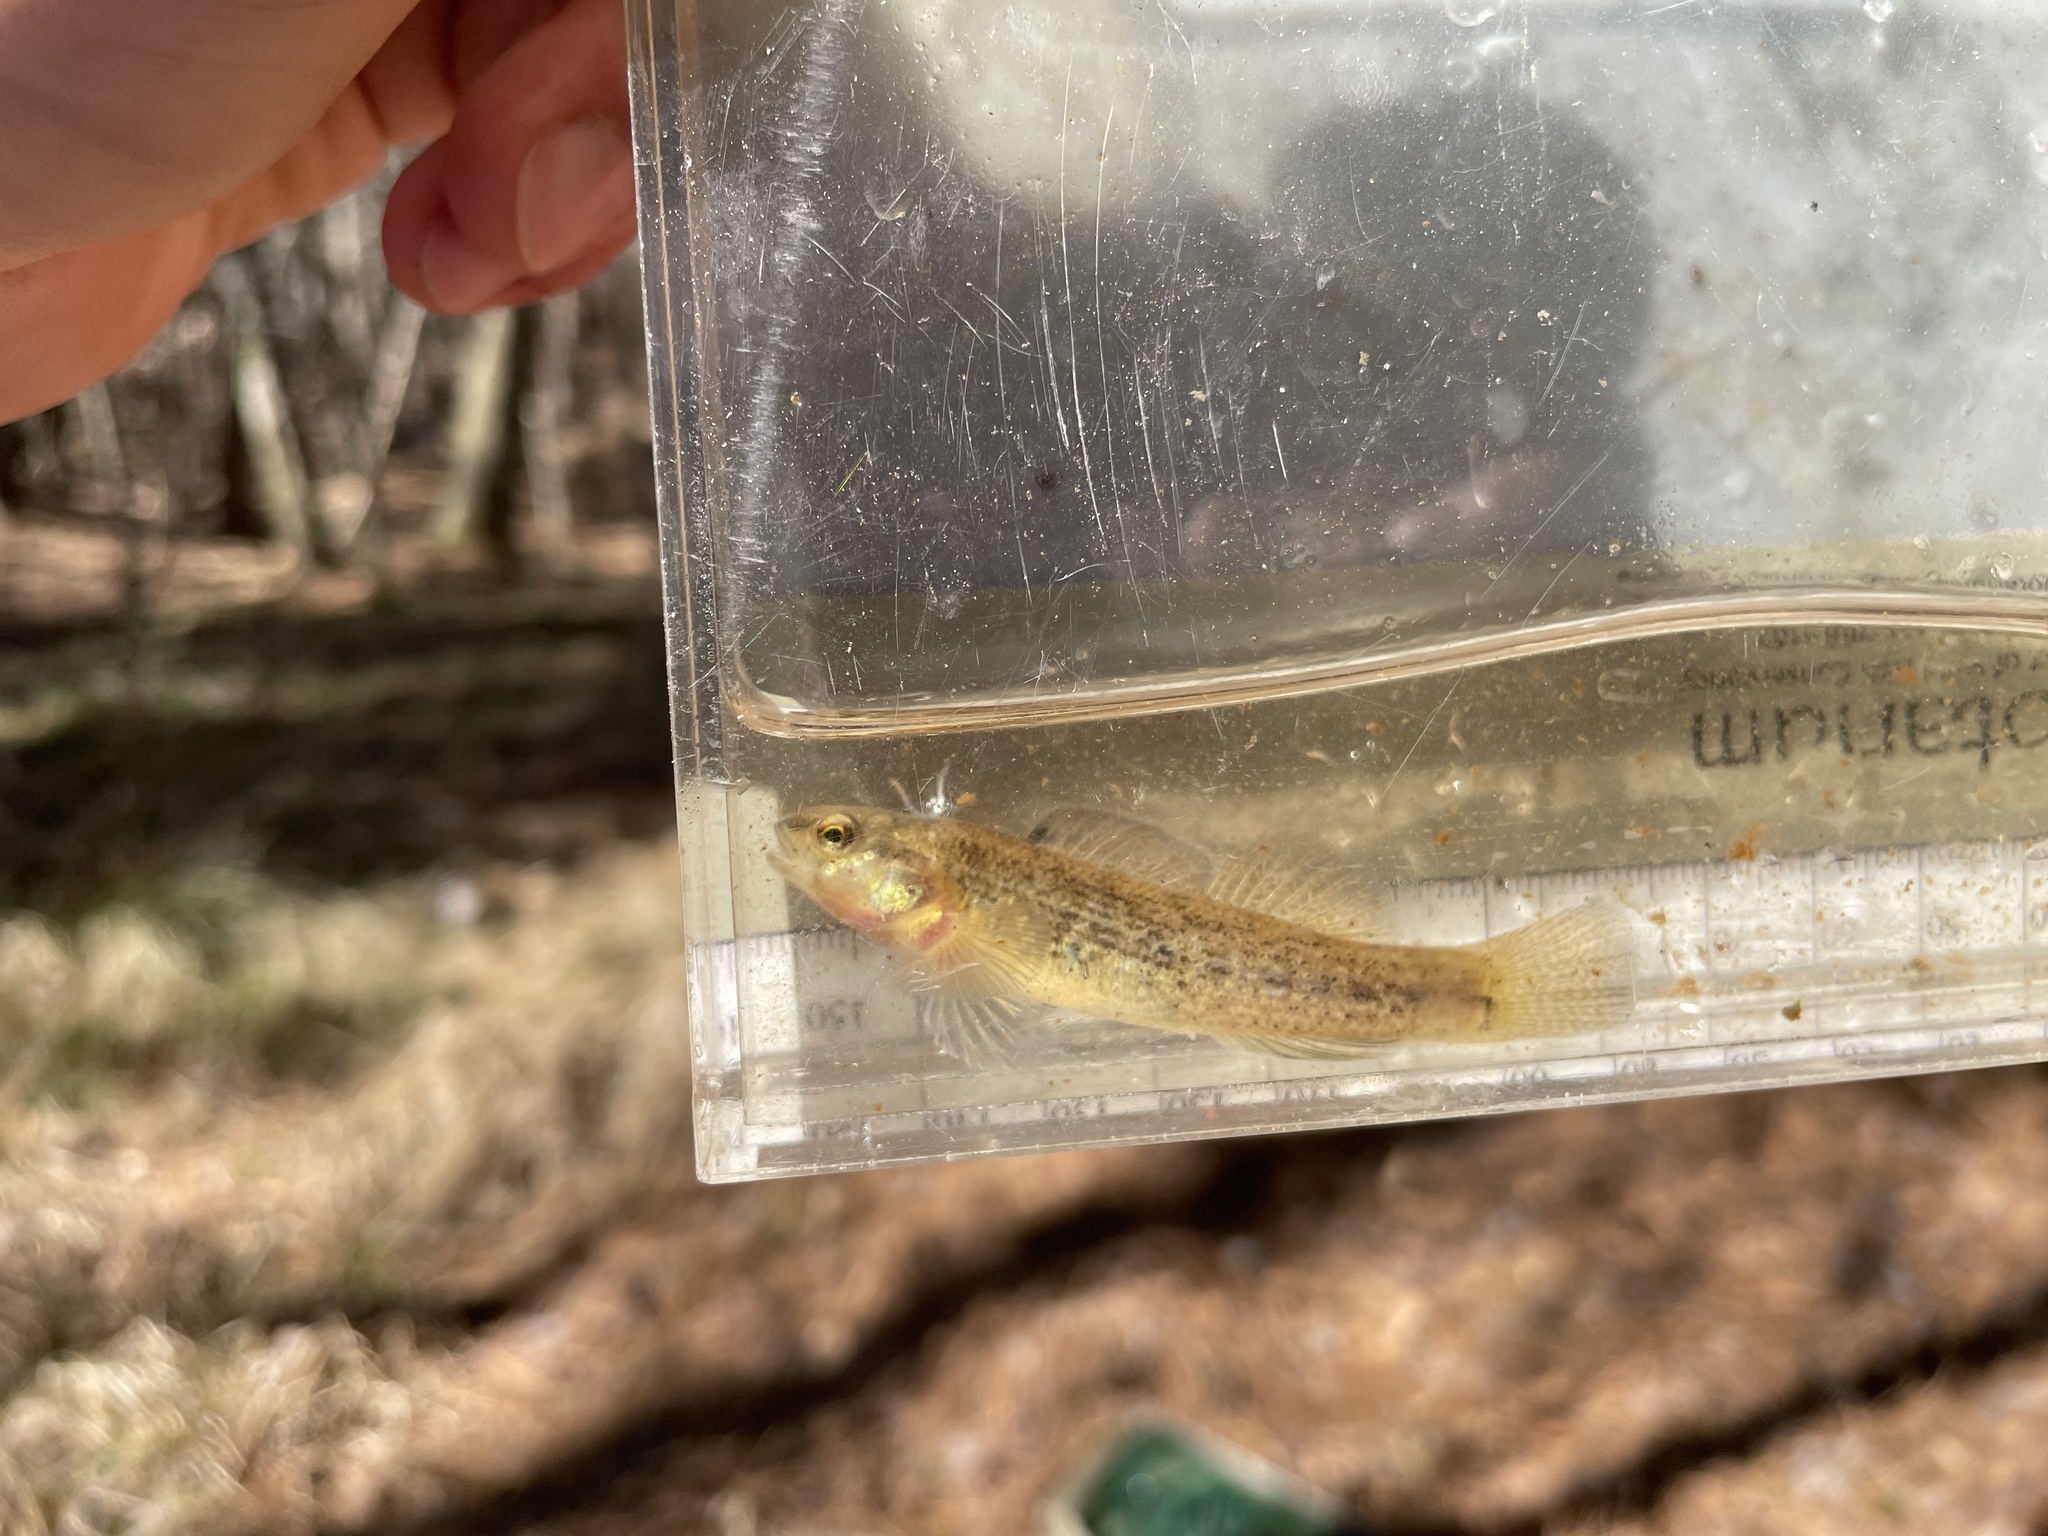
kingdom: Animalia
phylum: Chordata
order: Perciformes
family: Percidae
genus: Etheostoma
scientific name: Etheostoma phytophilum
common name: Rush darter
